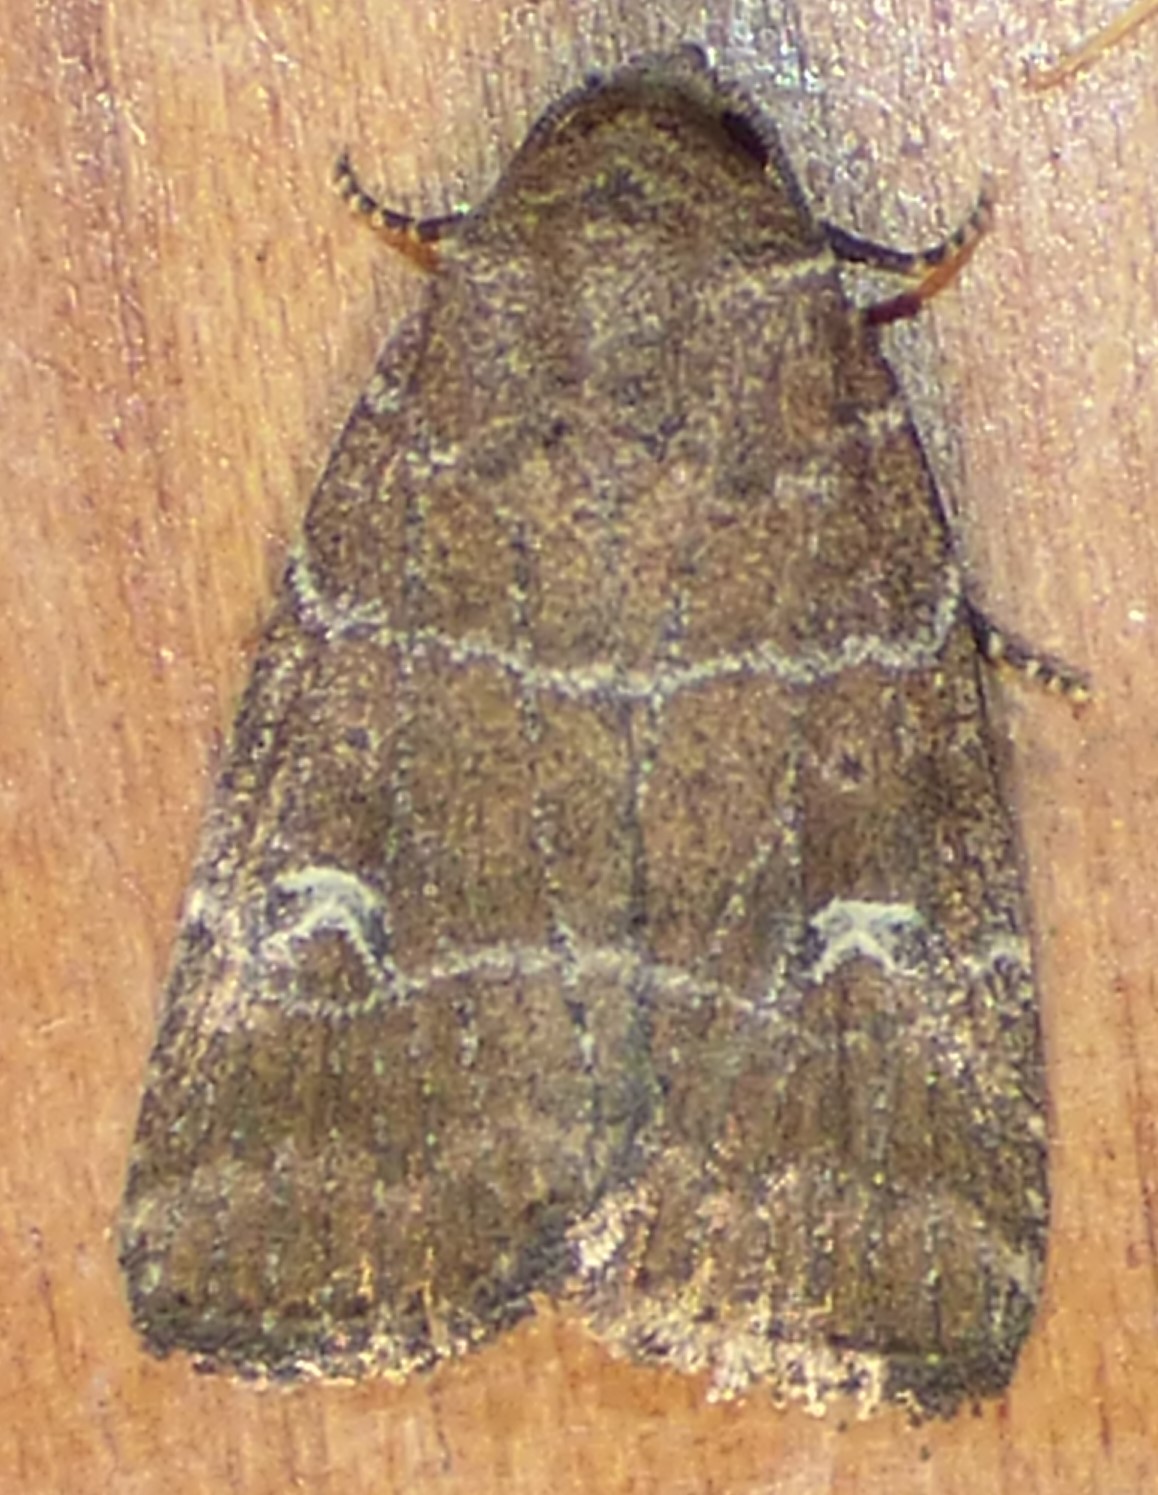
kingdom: Animalia
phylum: Arthropoda
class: Insecta
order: Lepidoptera
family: Noctuidae
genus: Elaphria
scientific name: Elaphria grata
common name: Grateful midget moth
